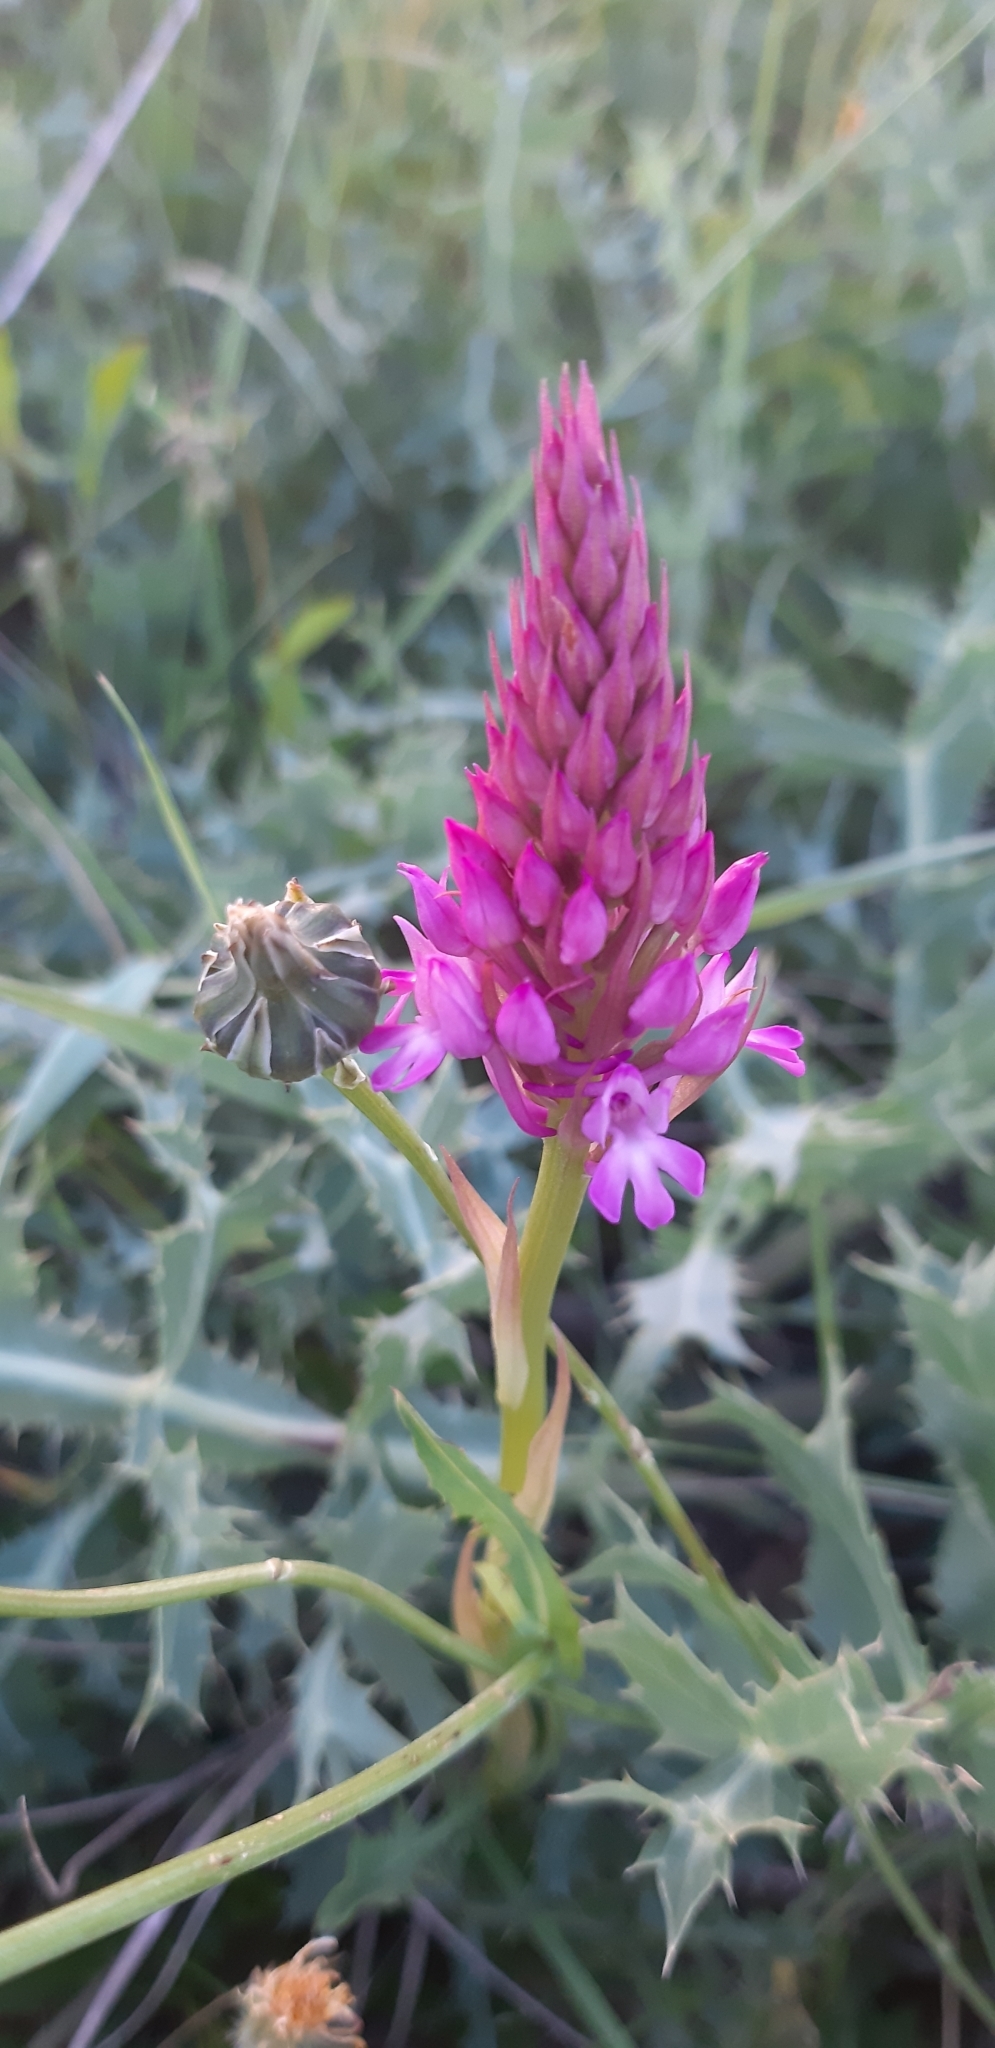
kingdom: Plantae
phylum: Tracheophyta
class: Liliopsida
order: Asparagales
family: Orchidaceae
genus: Anacamptis
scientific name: Anacamptis pyramidalis
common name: Pyramidal orchid
